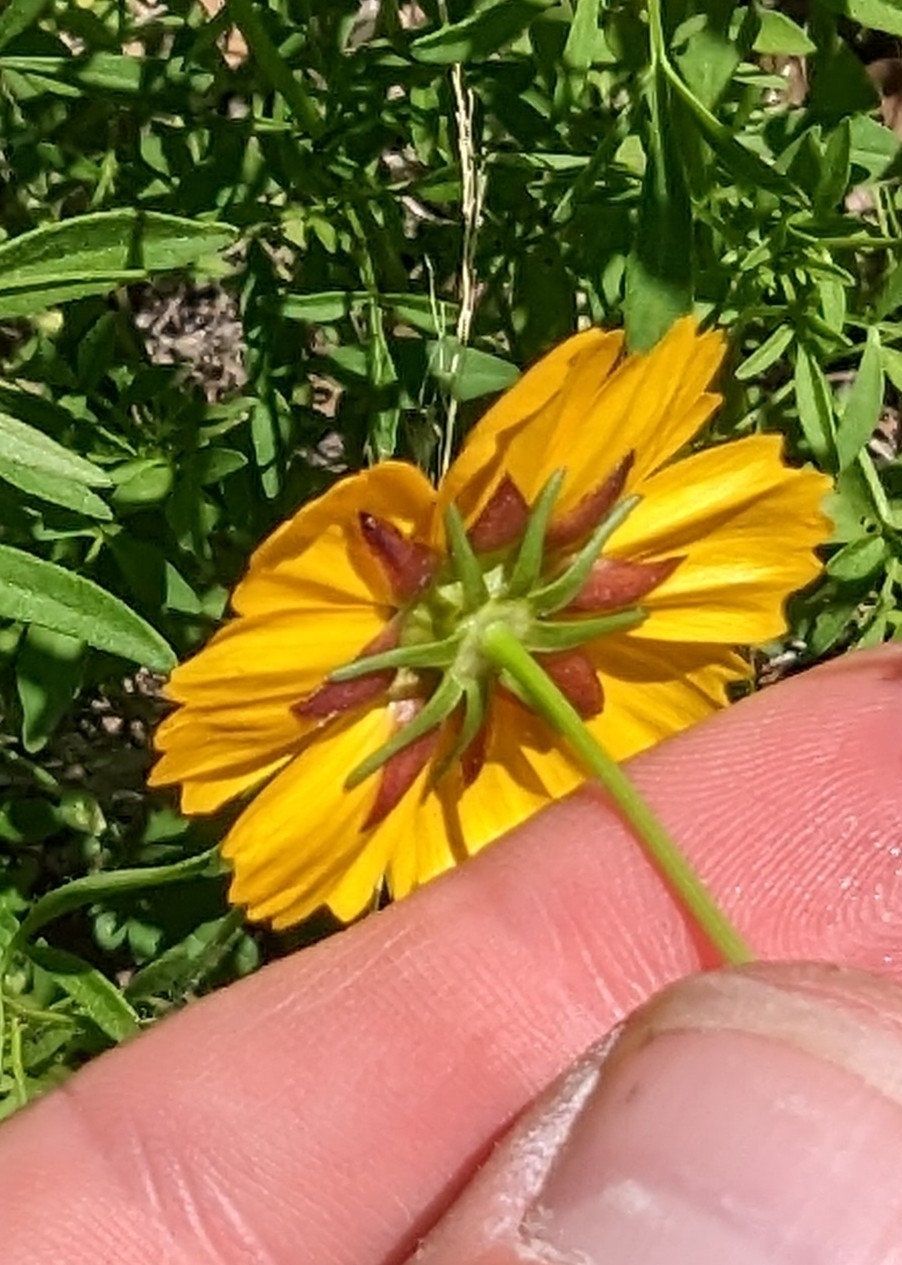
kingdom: Plantae
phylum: Tracheophyta
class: Magnoliopsida
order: Asterales
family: Asteraceae
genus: Coreopsis
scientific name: Coreopsis basalis
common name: Golden-mane coreopsis
